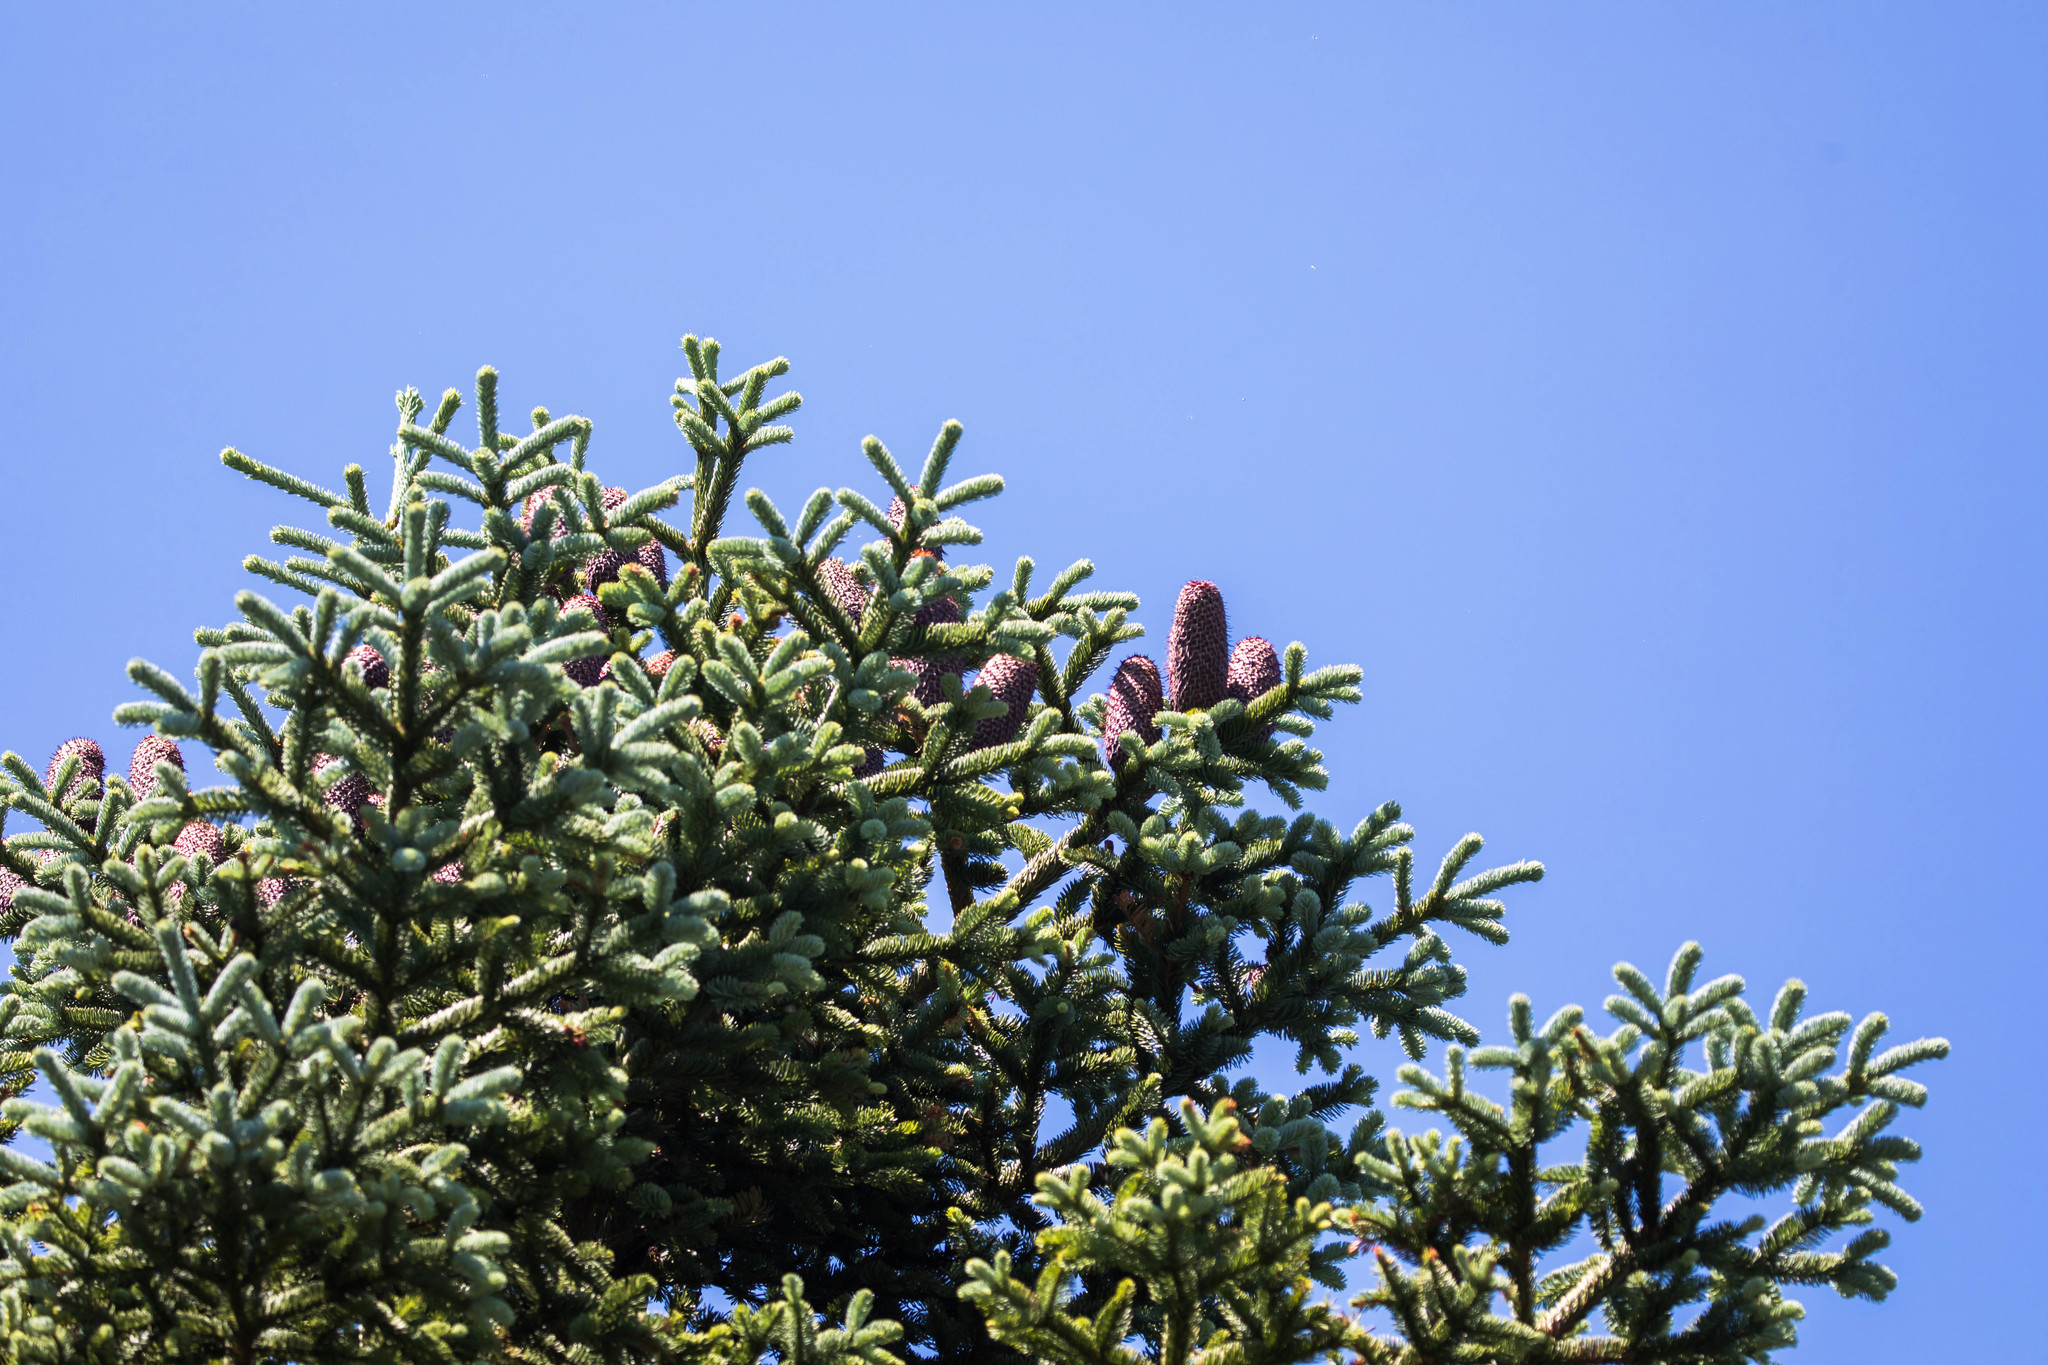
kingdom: Plantae
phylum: Tracheophyta
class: Pinopsida
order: Pinales
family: Pinaceae
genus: Abies
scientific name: Abies procera
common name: Noble fir
